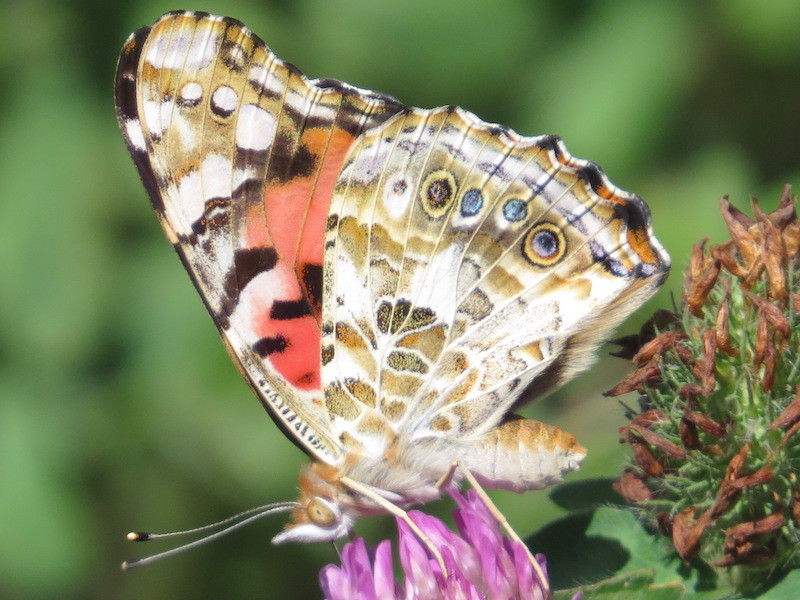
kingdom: Animalia
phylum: Arthropoda
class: Insecta
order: Lepidoptera
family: Nymphalidae
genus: Vanessa
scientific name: Vanessa cardui
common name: Painted lady
